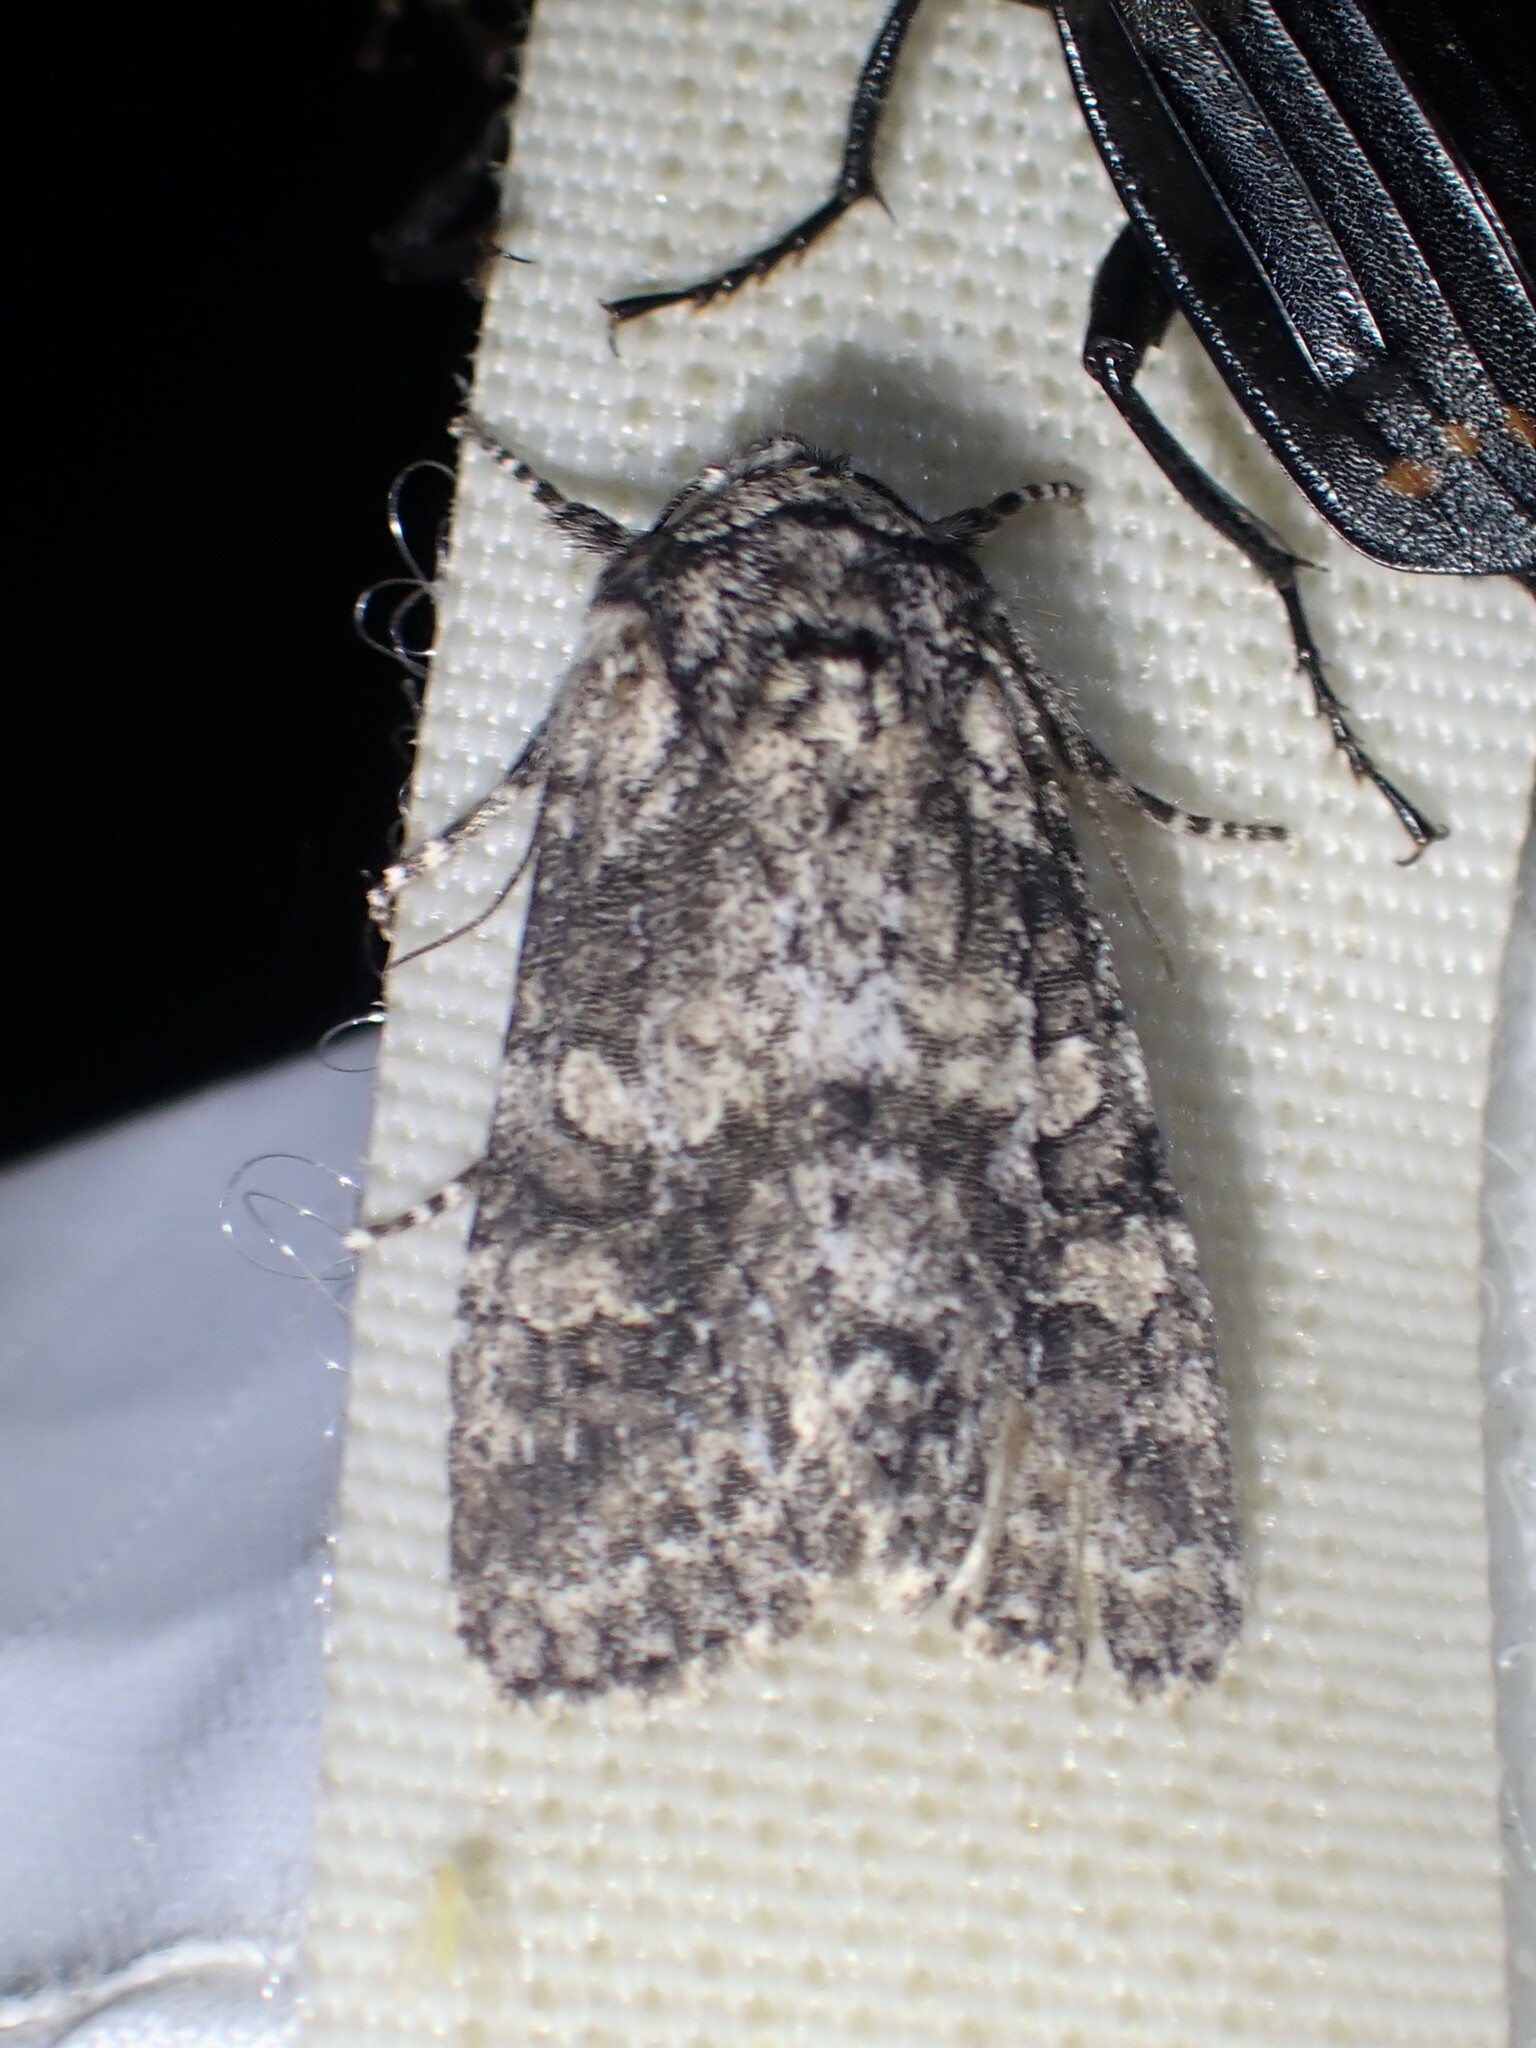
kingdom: Animalia
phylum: Arthropoda
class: Insecta
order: Lepidoptera
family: Noctuidae
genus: Egira
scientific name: Egira dolosa
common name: Lined black aspen cat.
